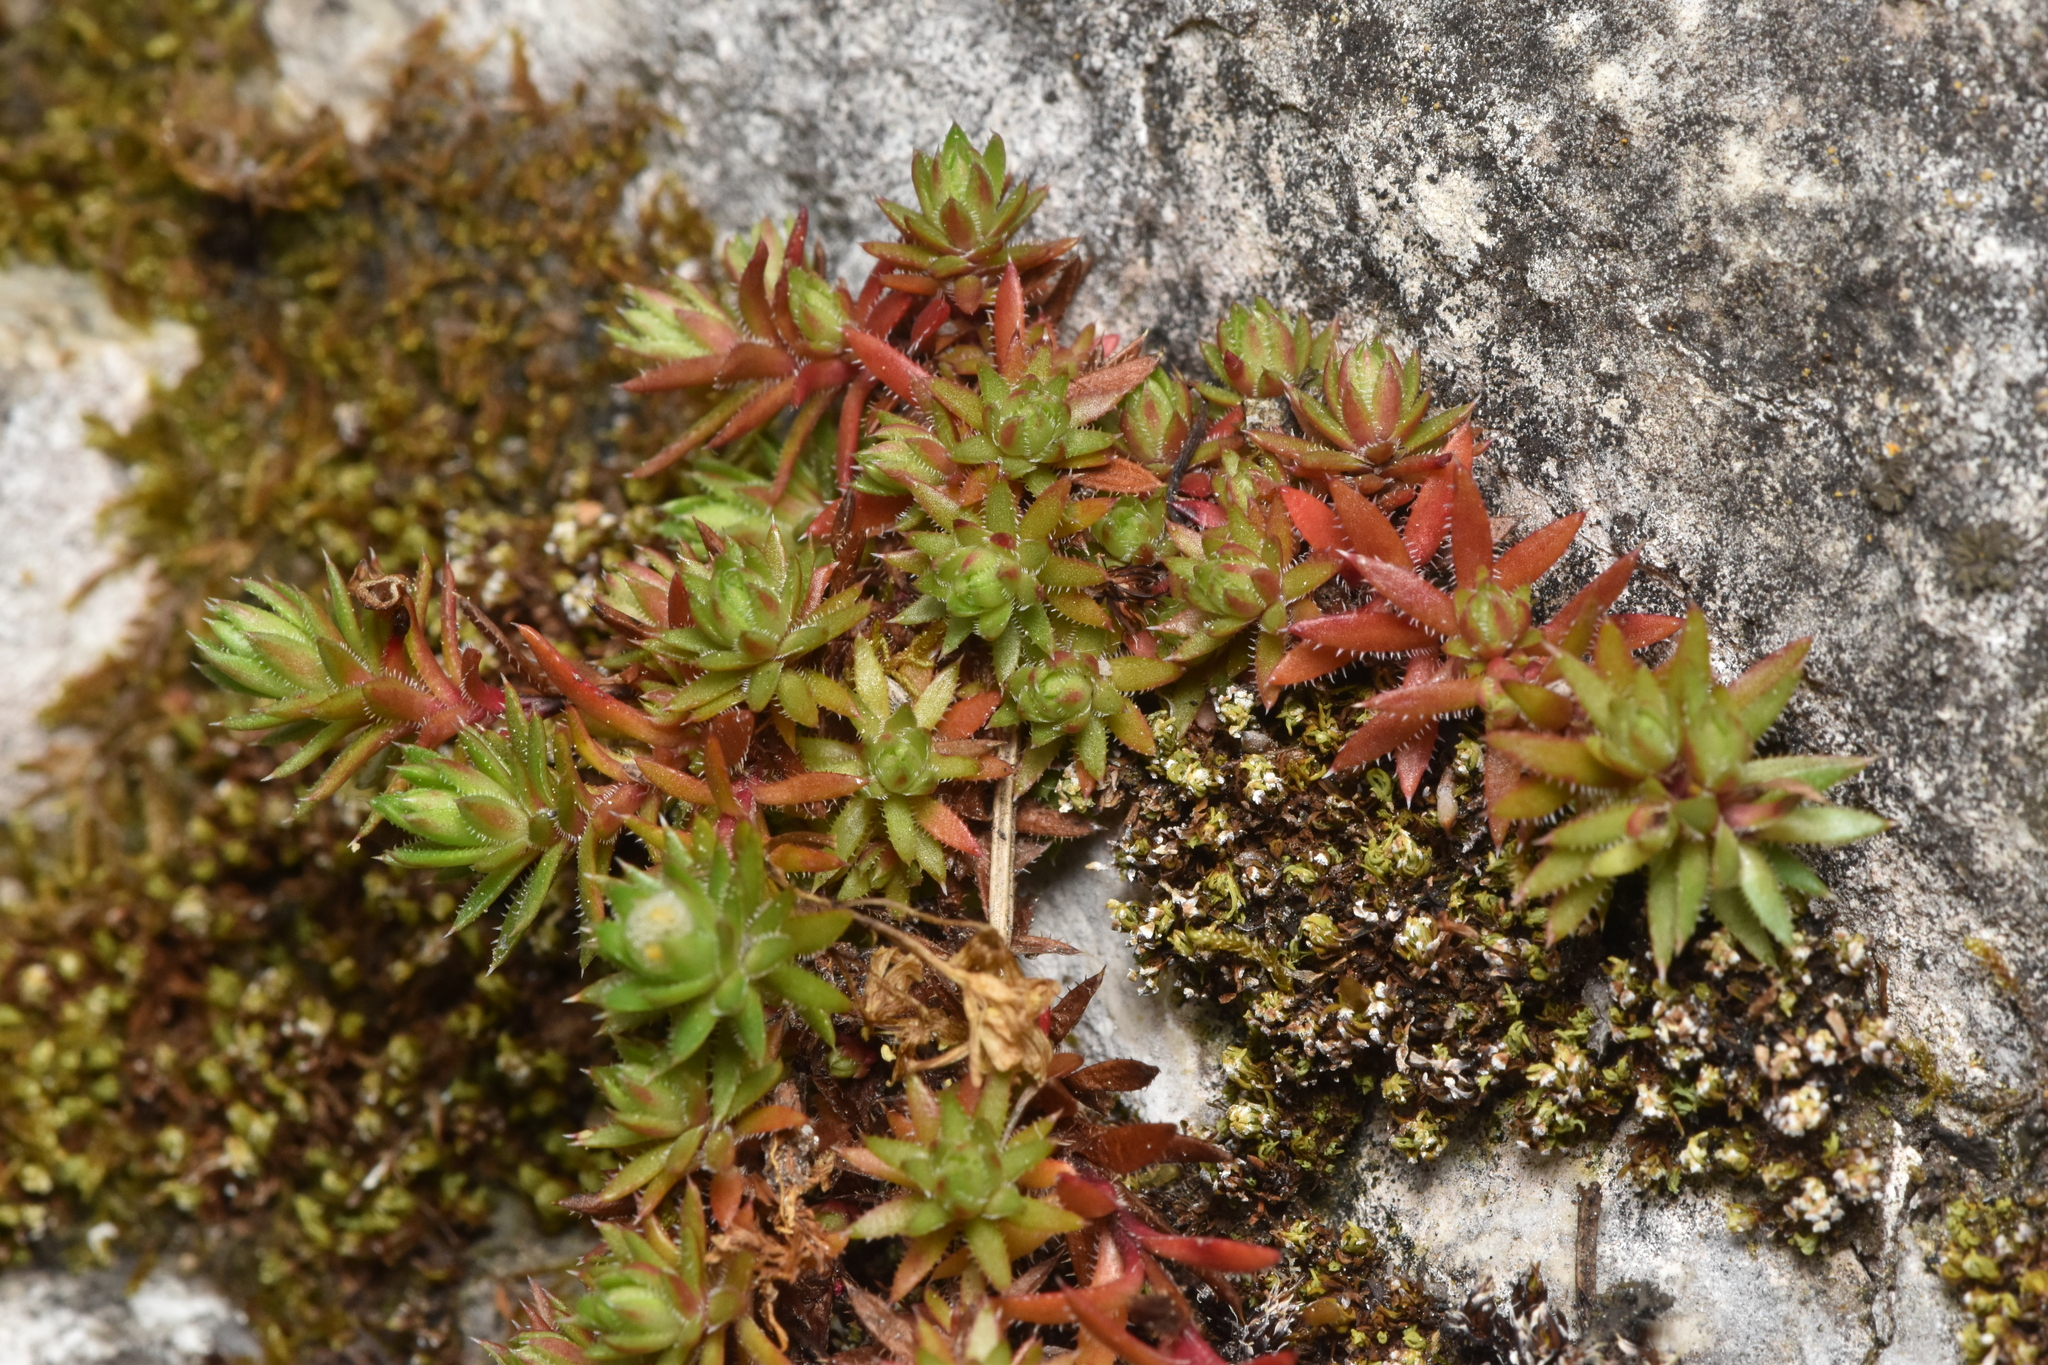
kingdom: Plantae
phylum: Tracheophyta
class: Magnoliopsida
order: Saxifragales
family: Saxifragaceae
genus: Saxifraga
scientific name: Saxifraga bronchialis
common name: Matted saxifrage
